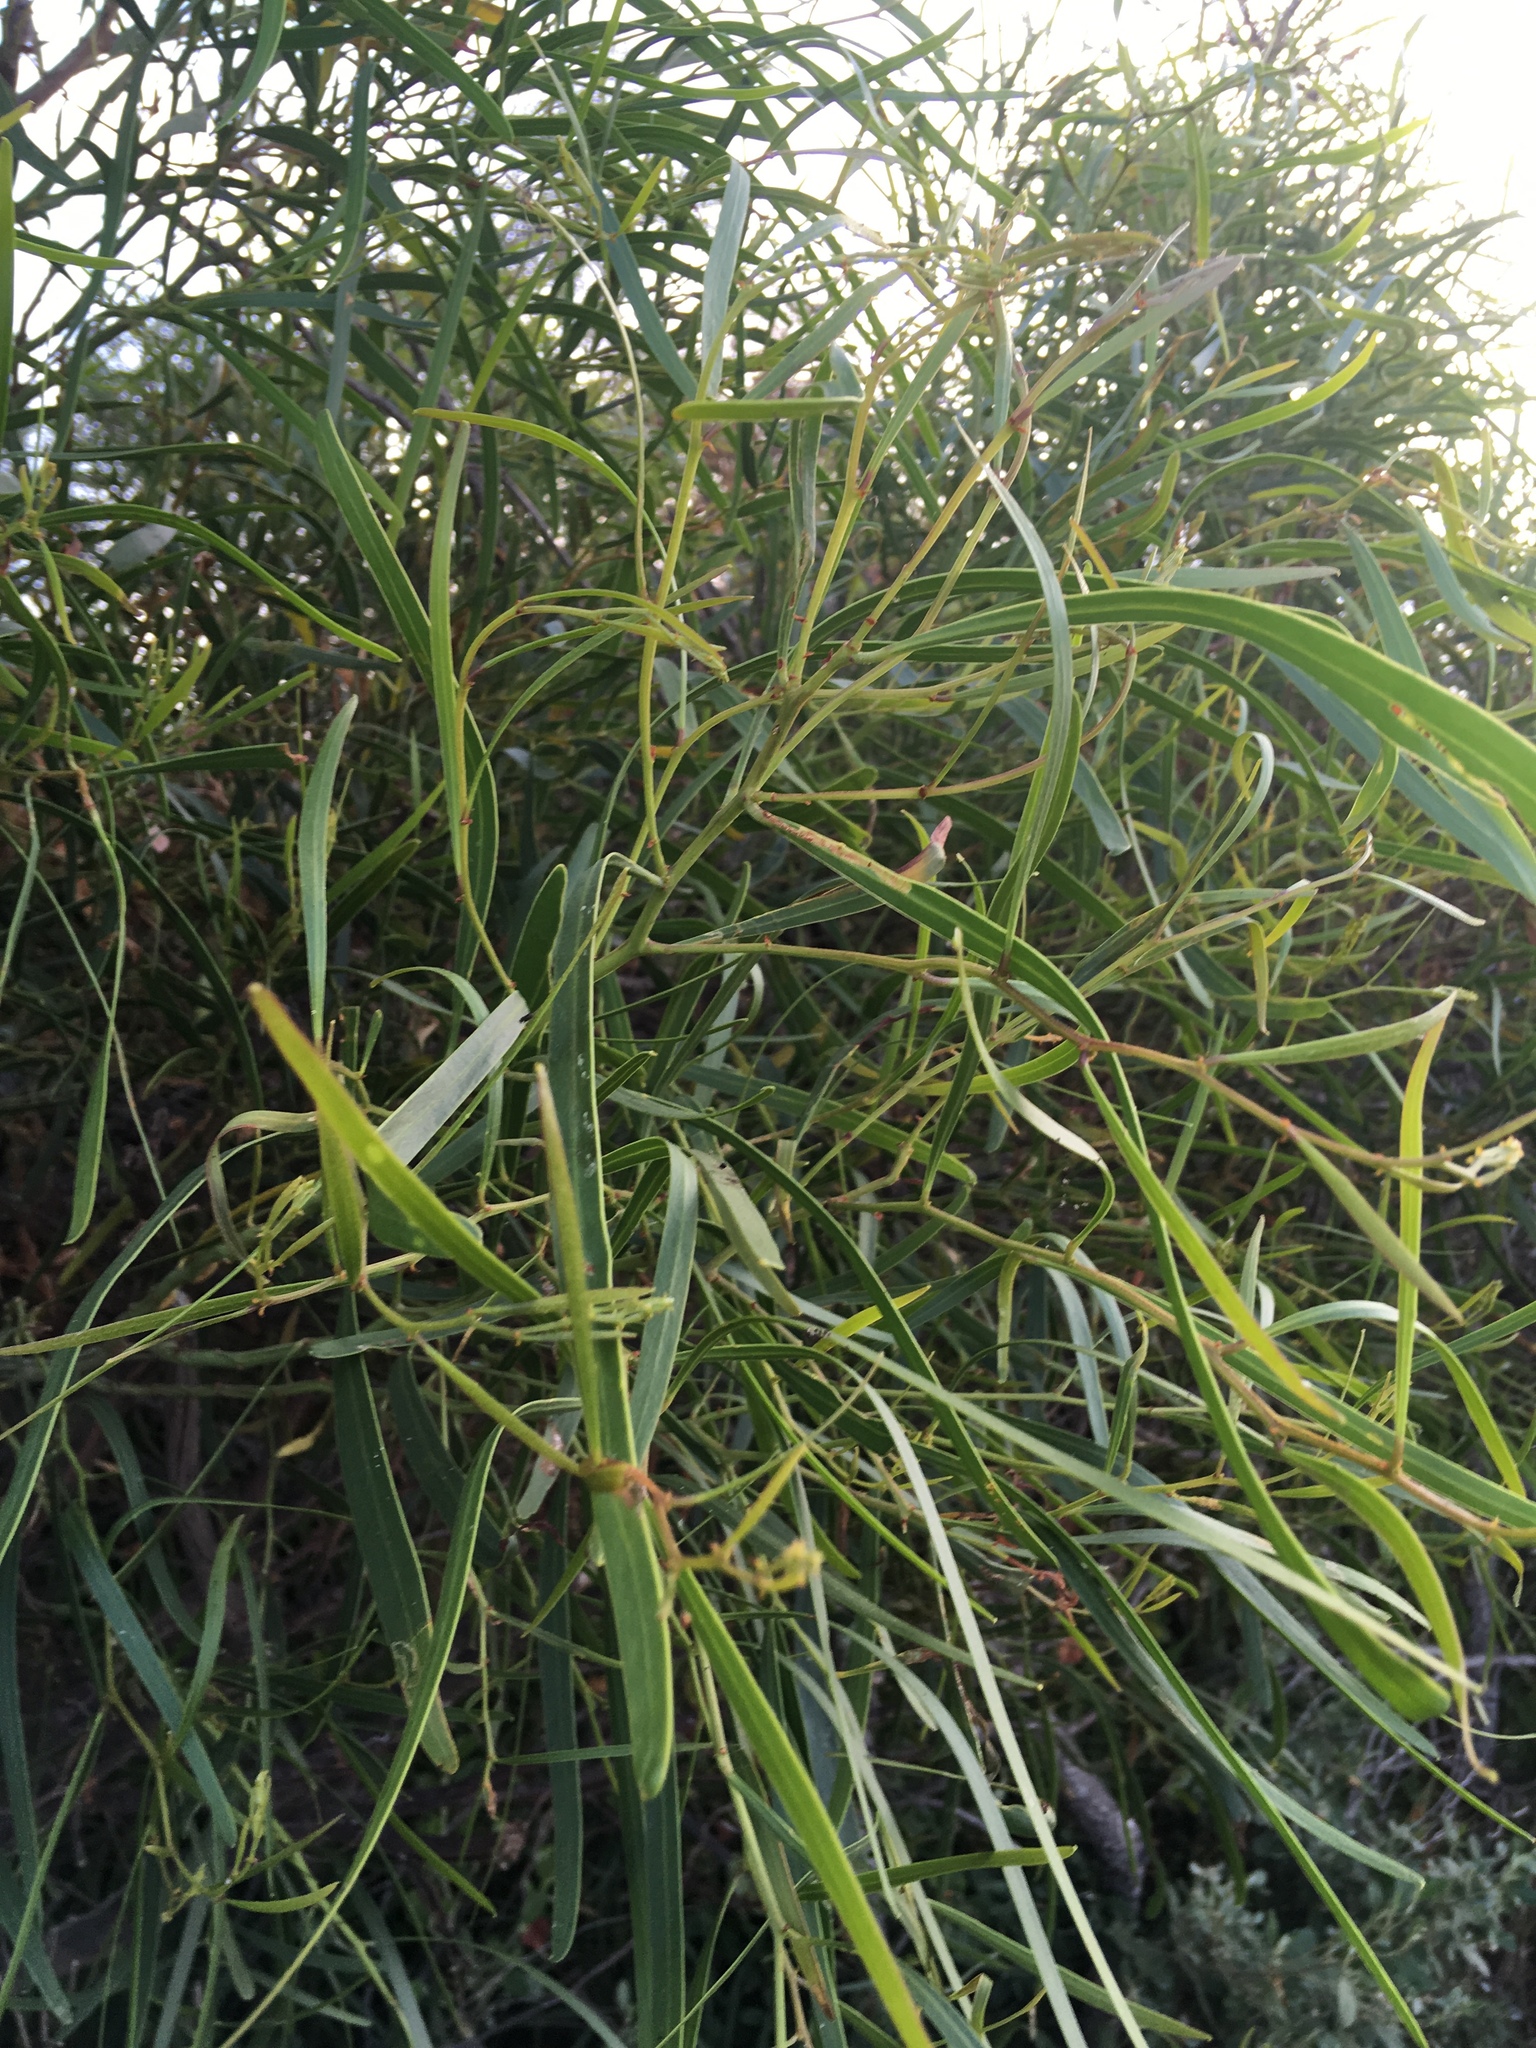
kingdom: Plantae
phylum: Tracheophyta
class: Magnoliopsida
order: Fabales
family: Fabaceae
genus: Acacia
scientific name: Acacia rostellifera
